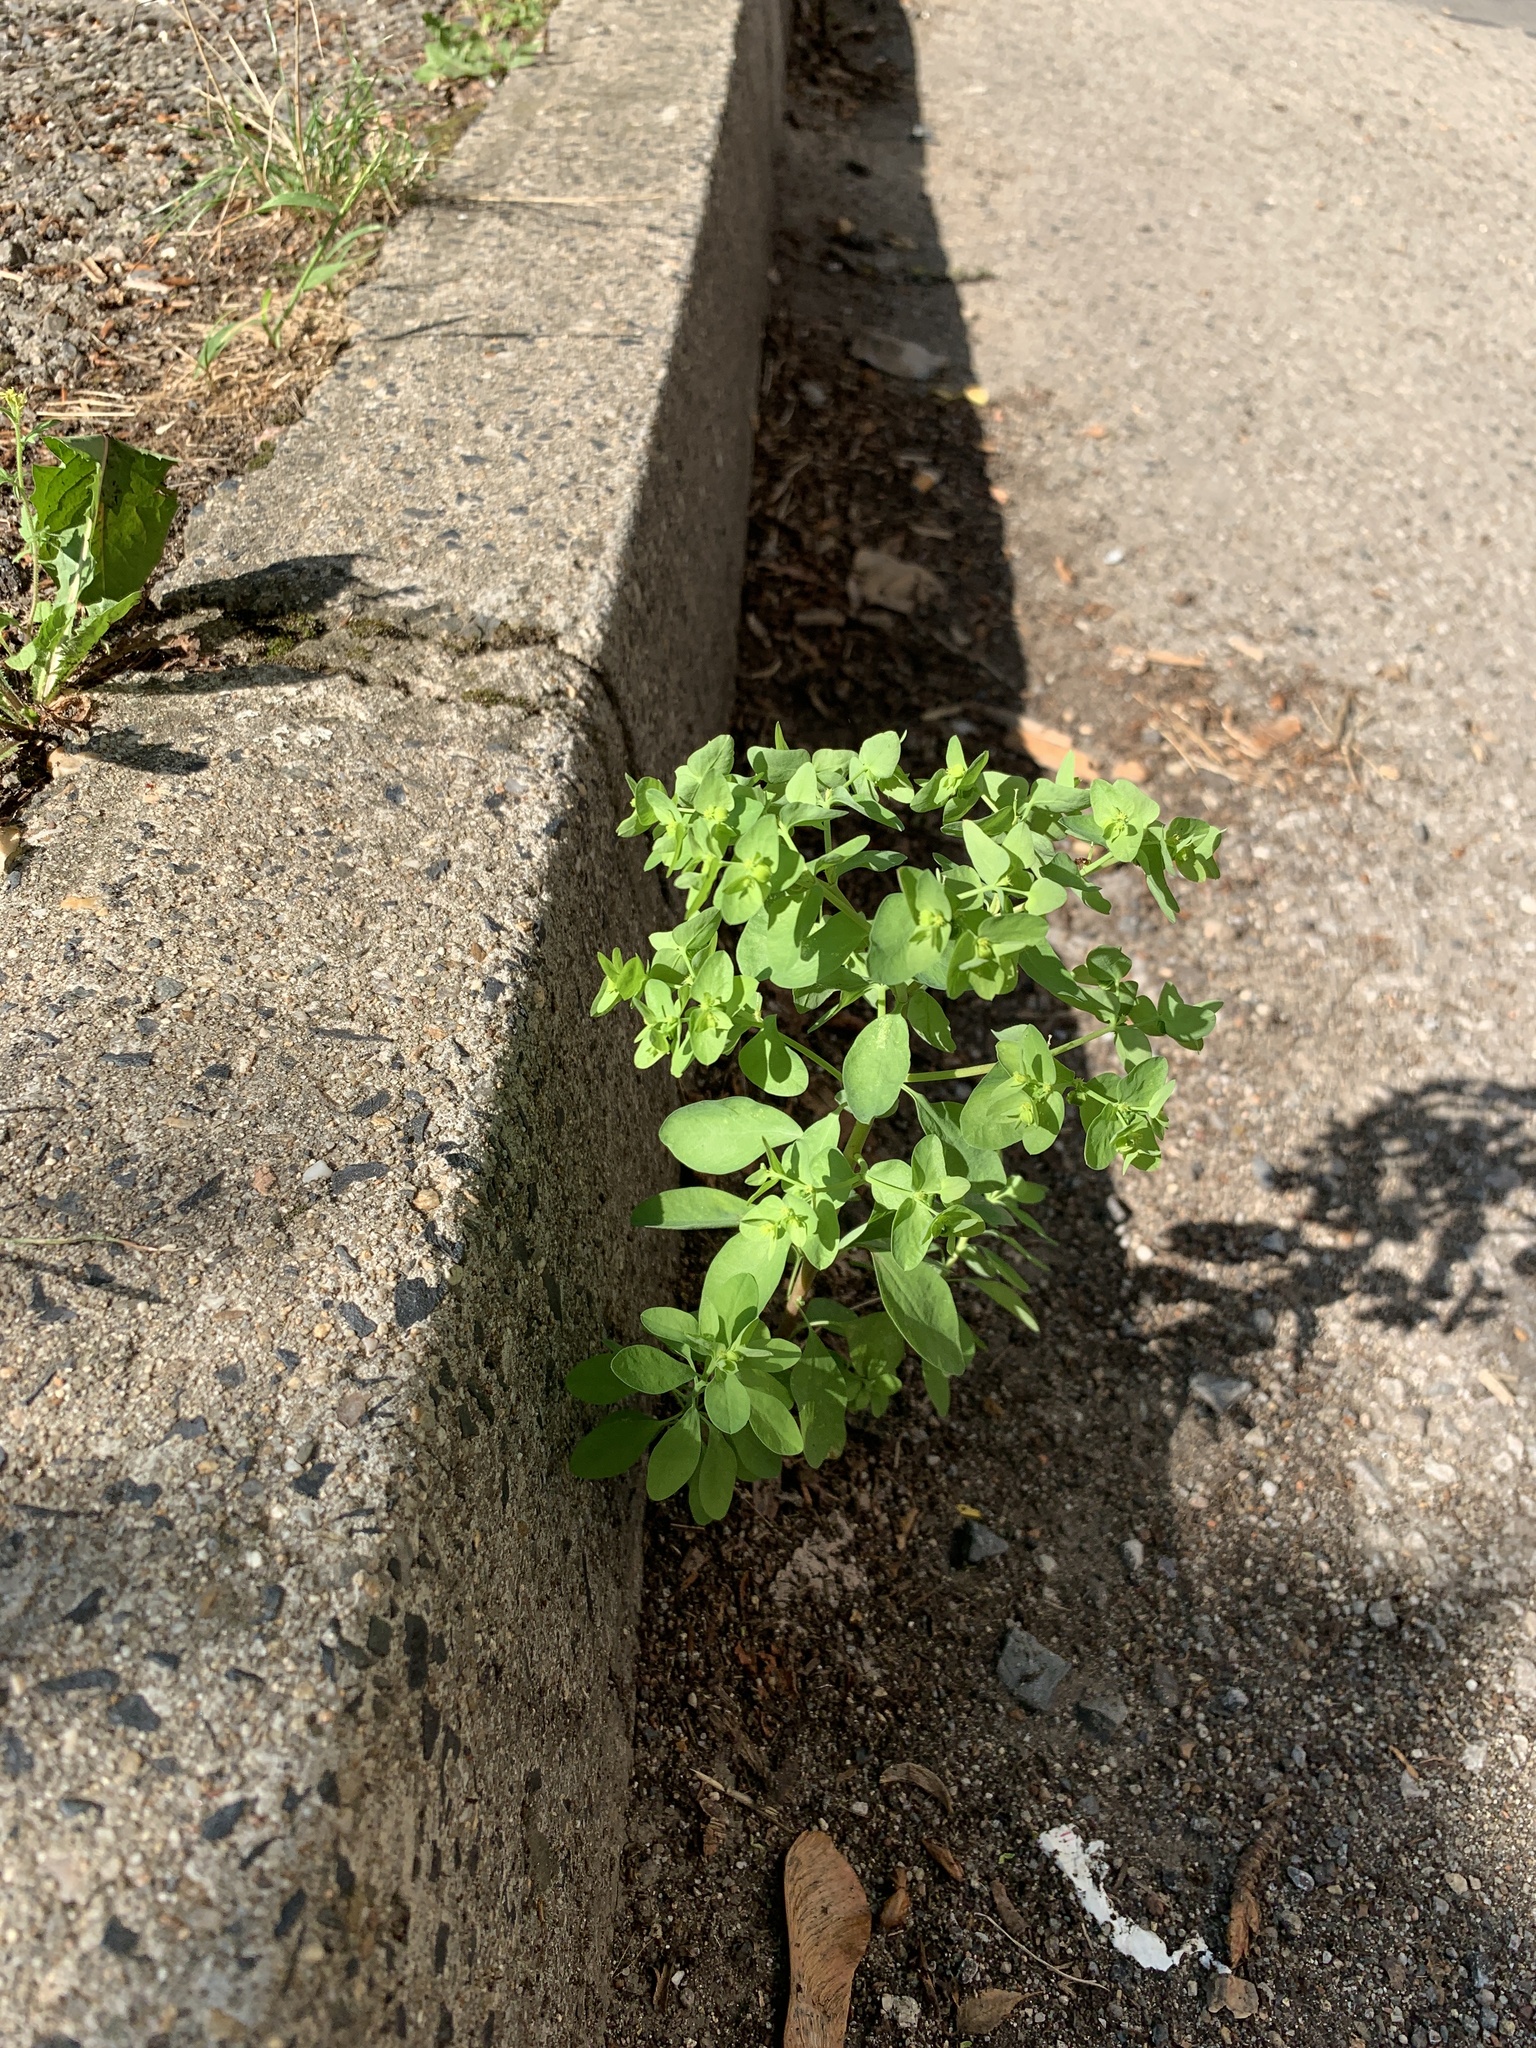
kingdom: Plantae
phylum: Tracheophyta
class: Magnoliopsida
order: Malpighiales
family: Euphorbiaceae
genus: Euphorbia
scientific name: Euphorbia peplus
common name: Petty spurge
